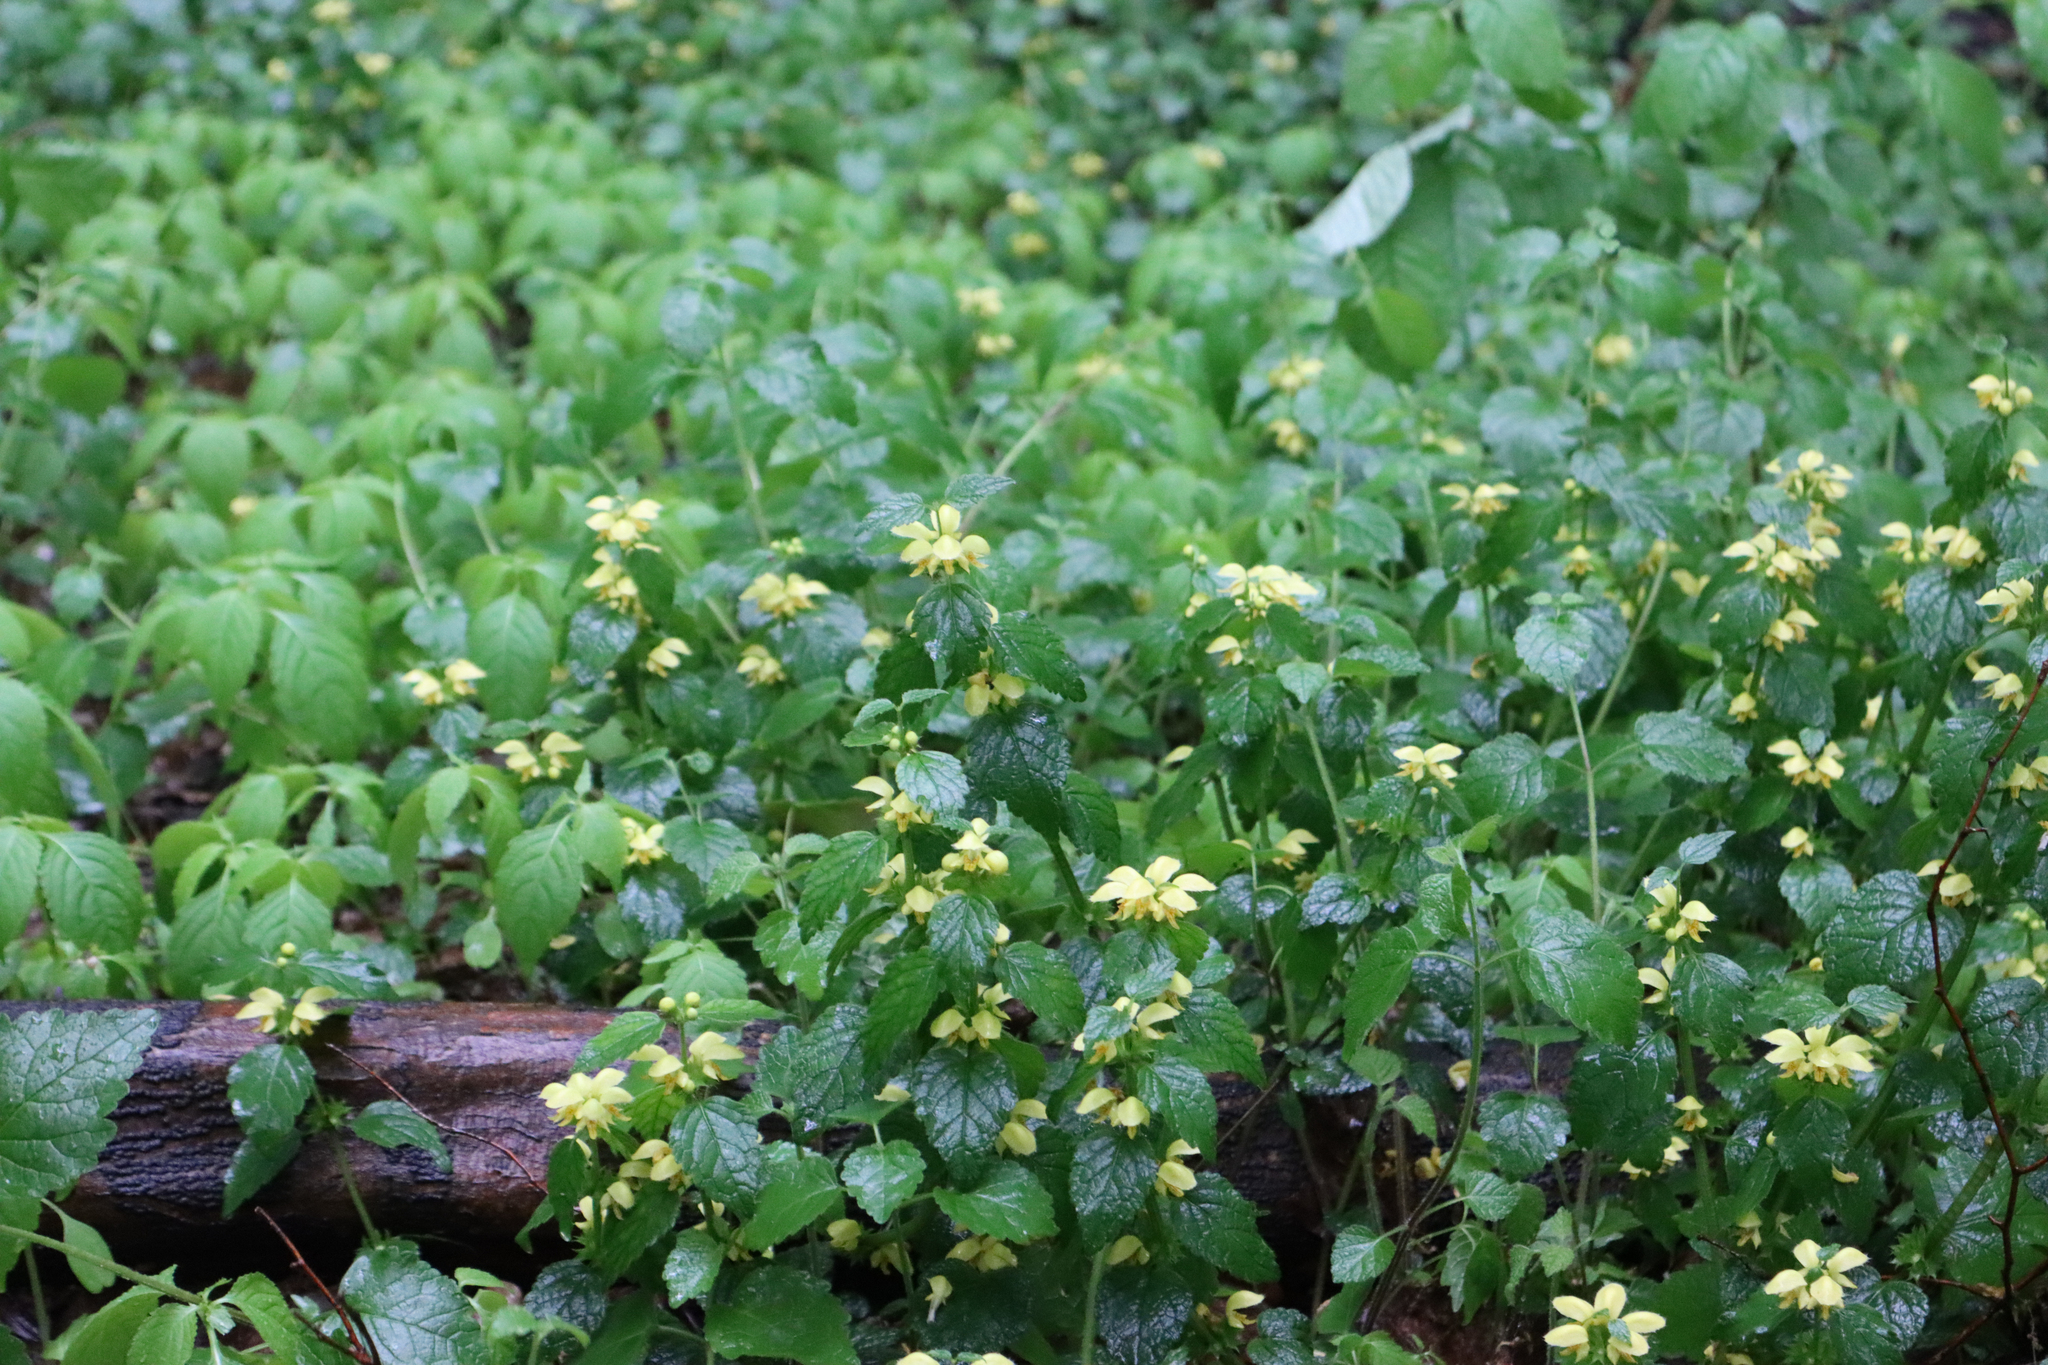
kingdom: Plantae
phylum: Tracheophyta
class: Magnoliopsida
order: Lamiales
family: Lamiaceae
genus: Lamium
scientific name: Lamium galeobdolon
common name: Yellow archangel
